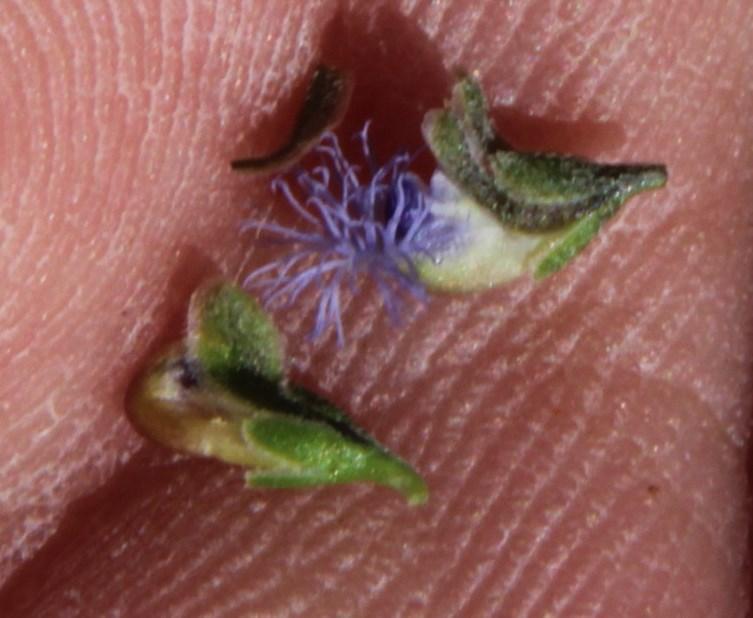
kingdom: Plantae
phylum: Tracheophyta
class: Magnoliopsida
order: Fabales
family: Polygalaceae
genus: Polygala
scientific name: Polygala asbestina
